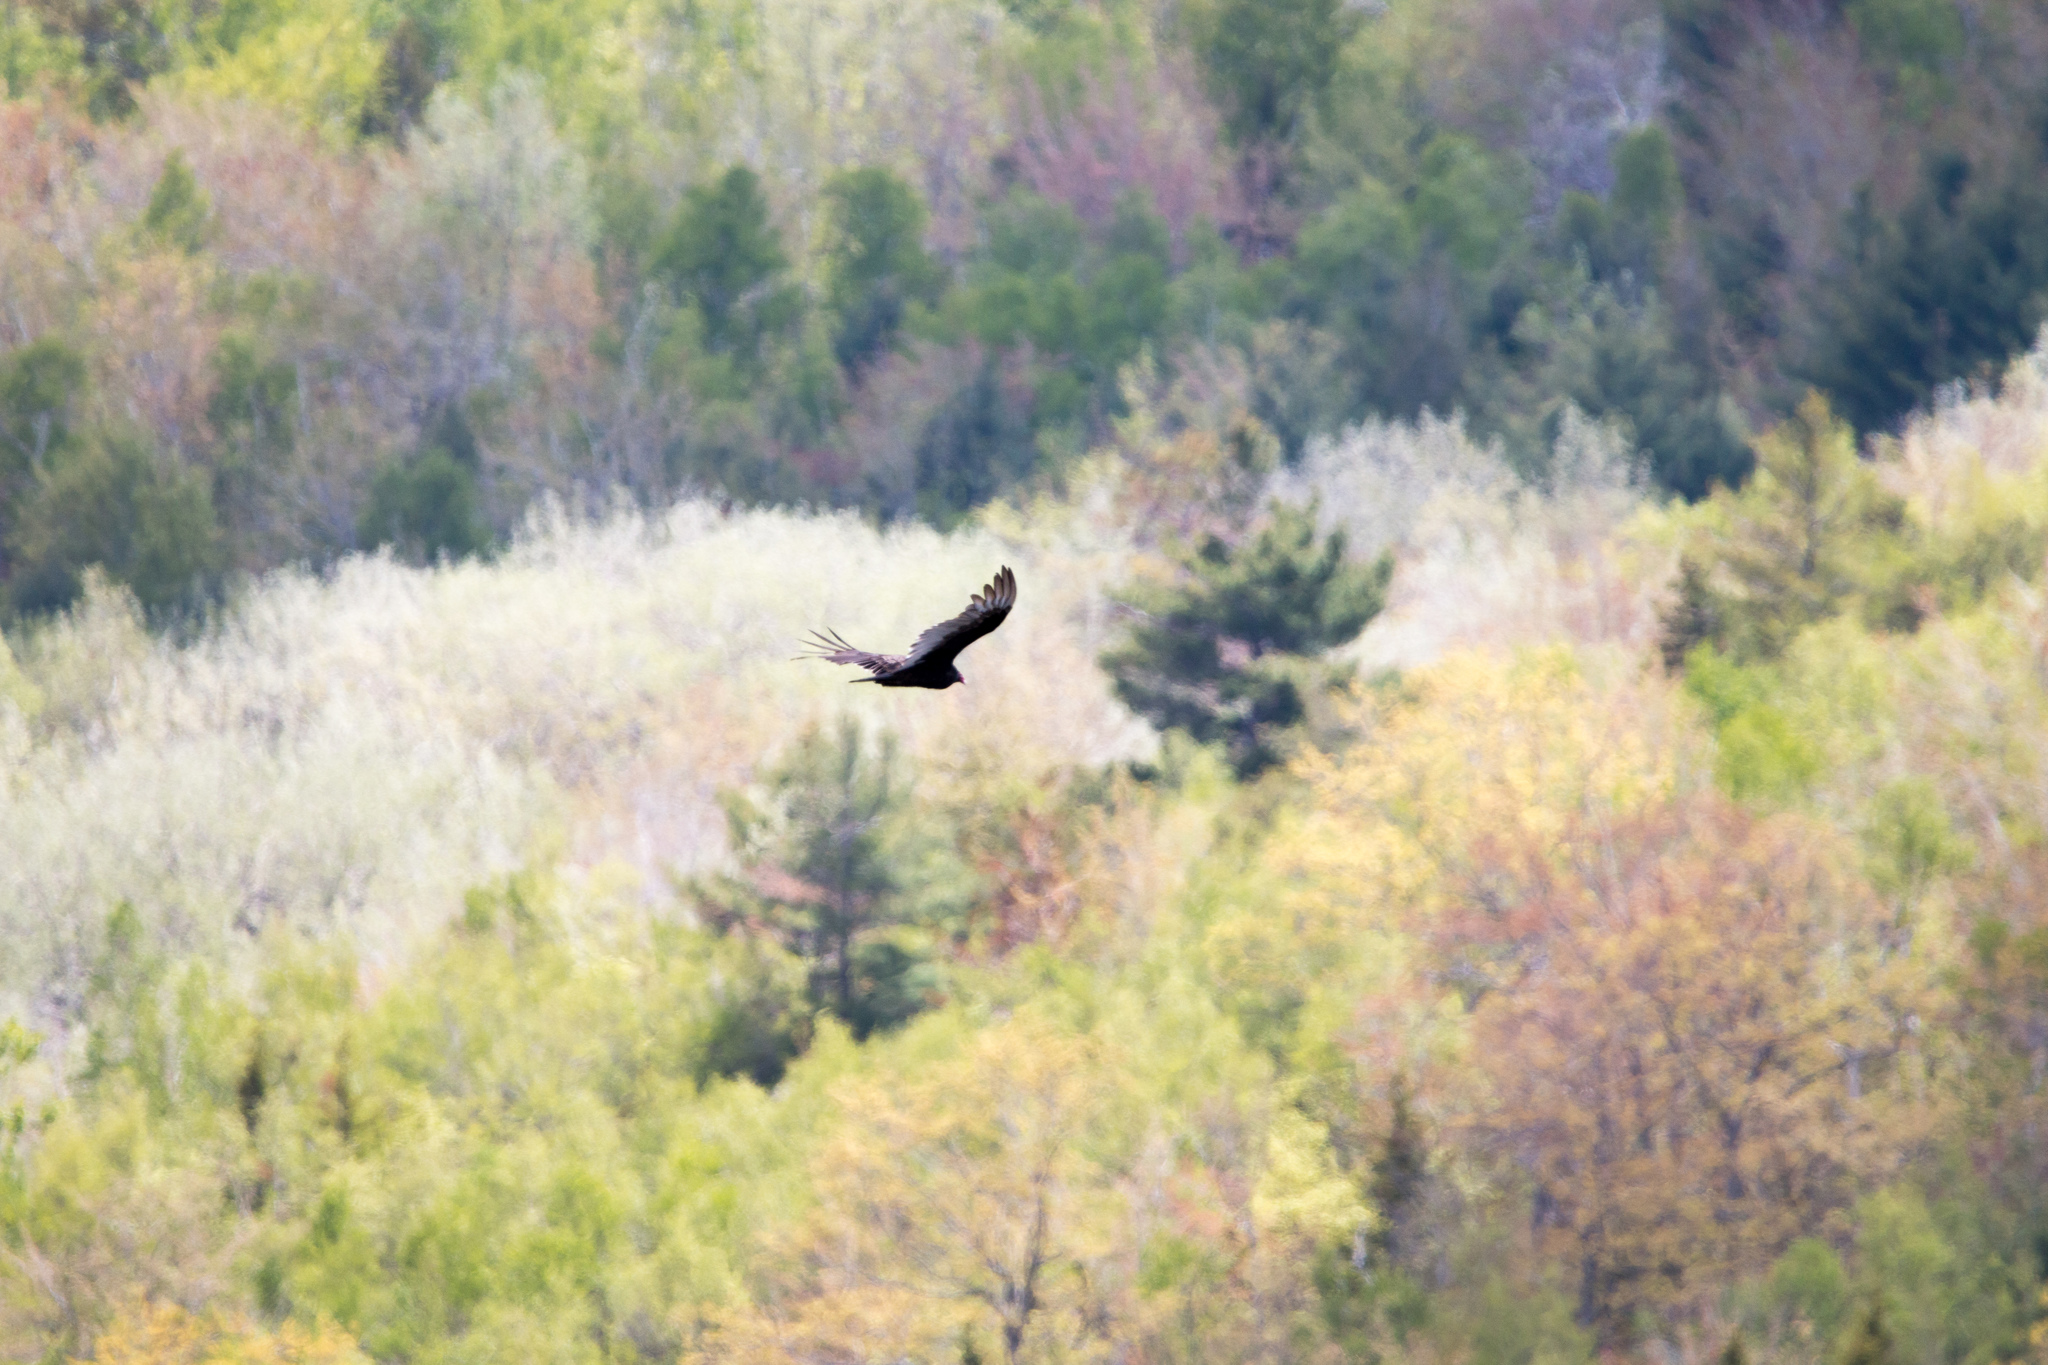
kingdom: Animalia
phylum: Chordata
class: Aves
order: Accipitriformes
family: Cathartidae
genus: Cathartes
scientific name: Cathartes aura
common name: Turkey vulture
